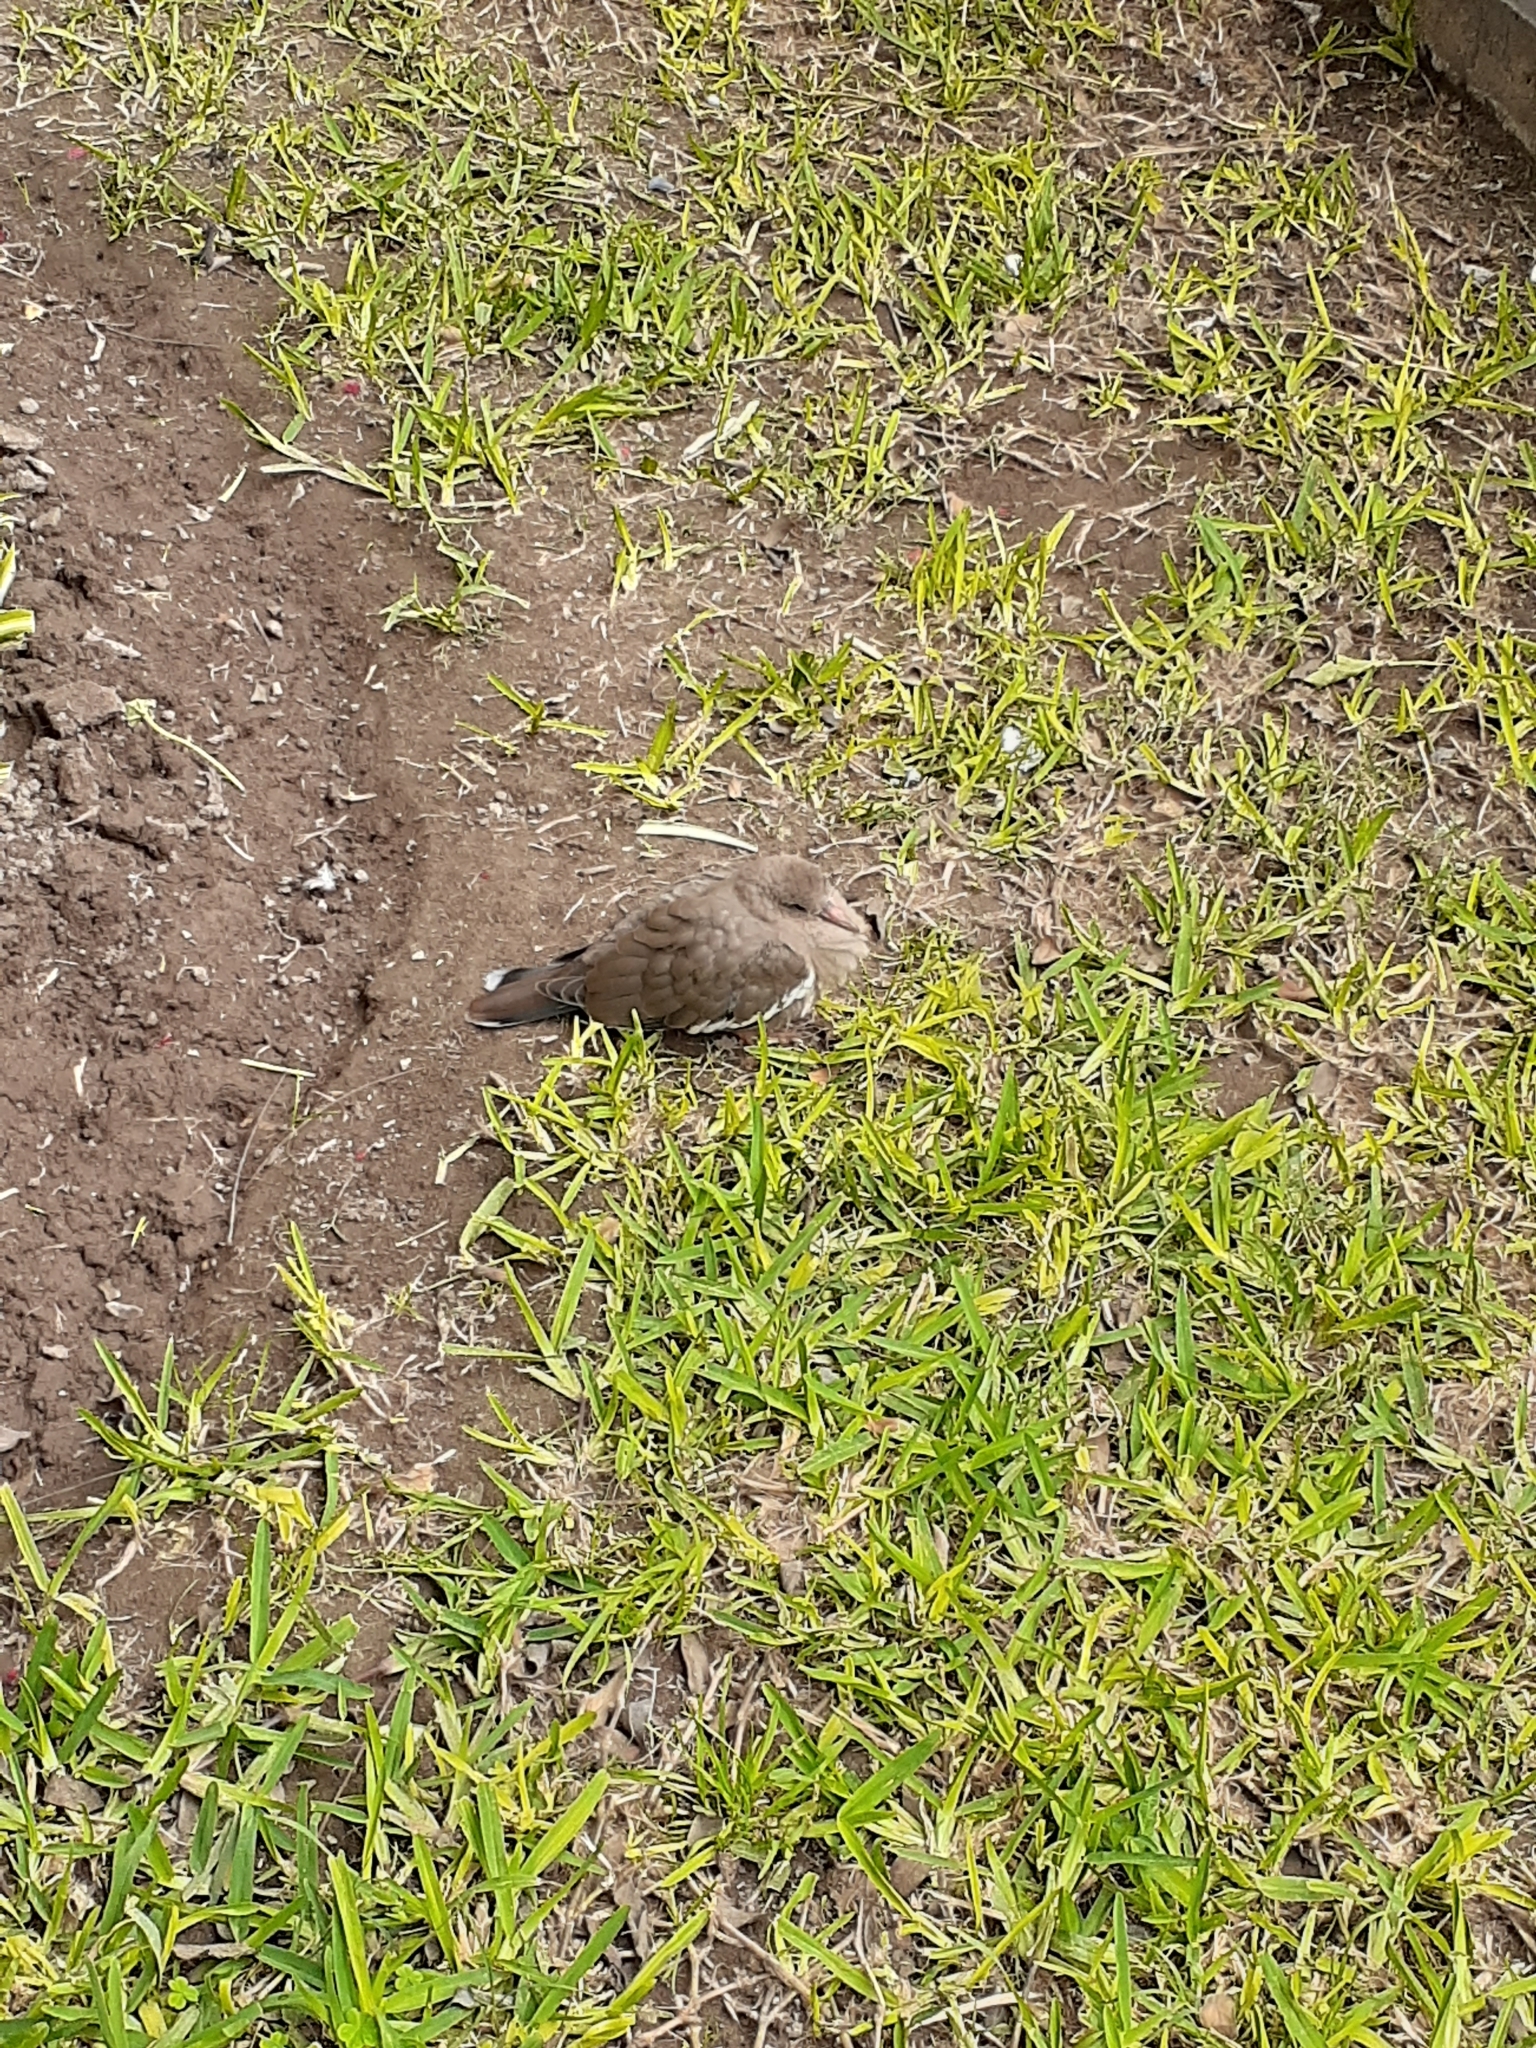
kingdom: Animalia
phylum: Chordata
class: Aves
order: Columbiformes
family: Columbidae
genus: Zenaida
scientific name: Zenaida meloda
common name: West peruvian dove
